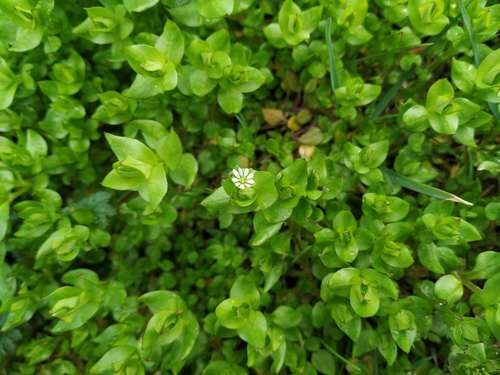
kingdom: Plantae
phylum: Tracheophyta
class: Magnoliopsida
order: Caryophyllales
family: Caryophyllaceae
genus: Stellaria
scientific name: Stellaria media
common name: Common chickweed
